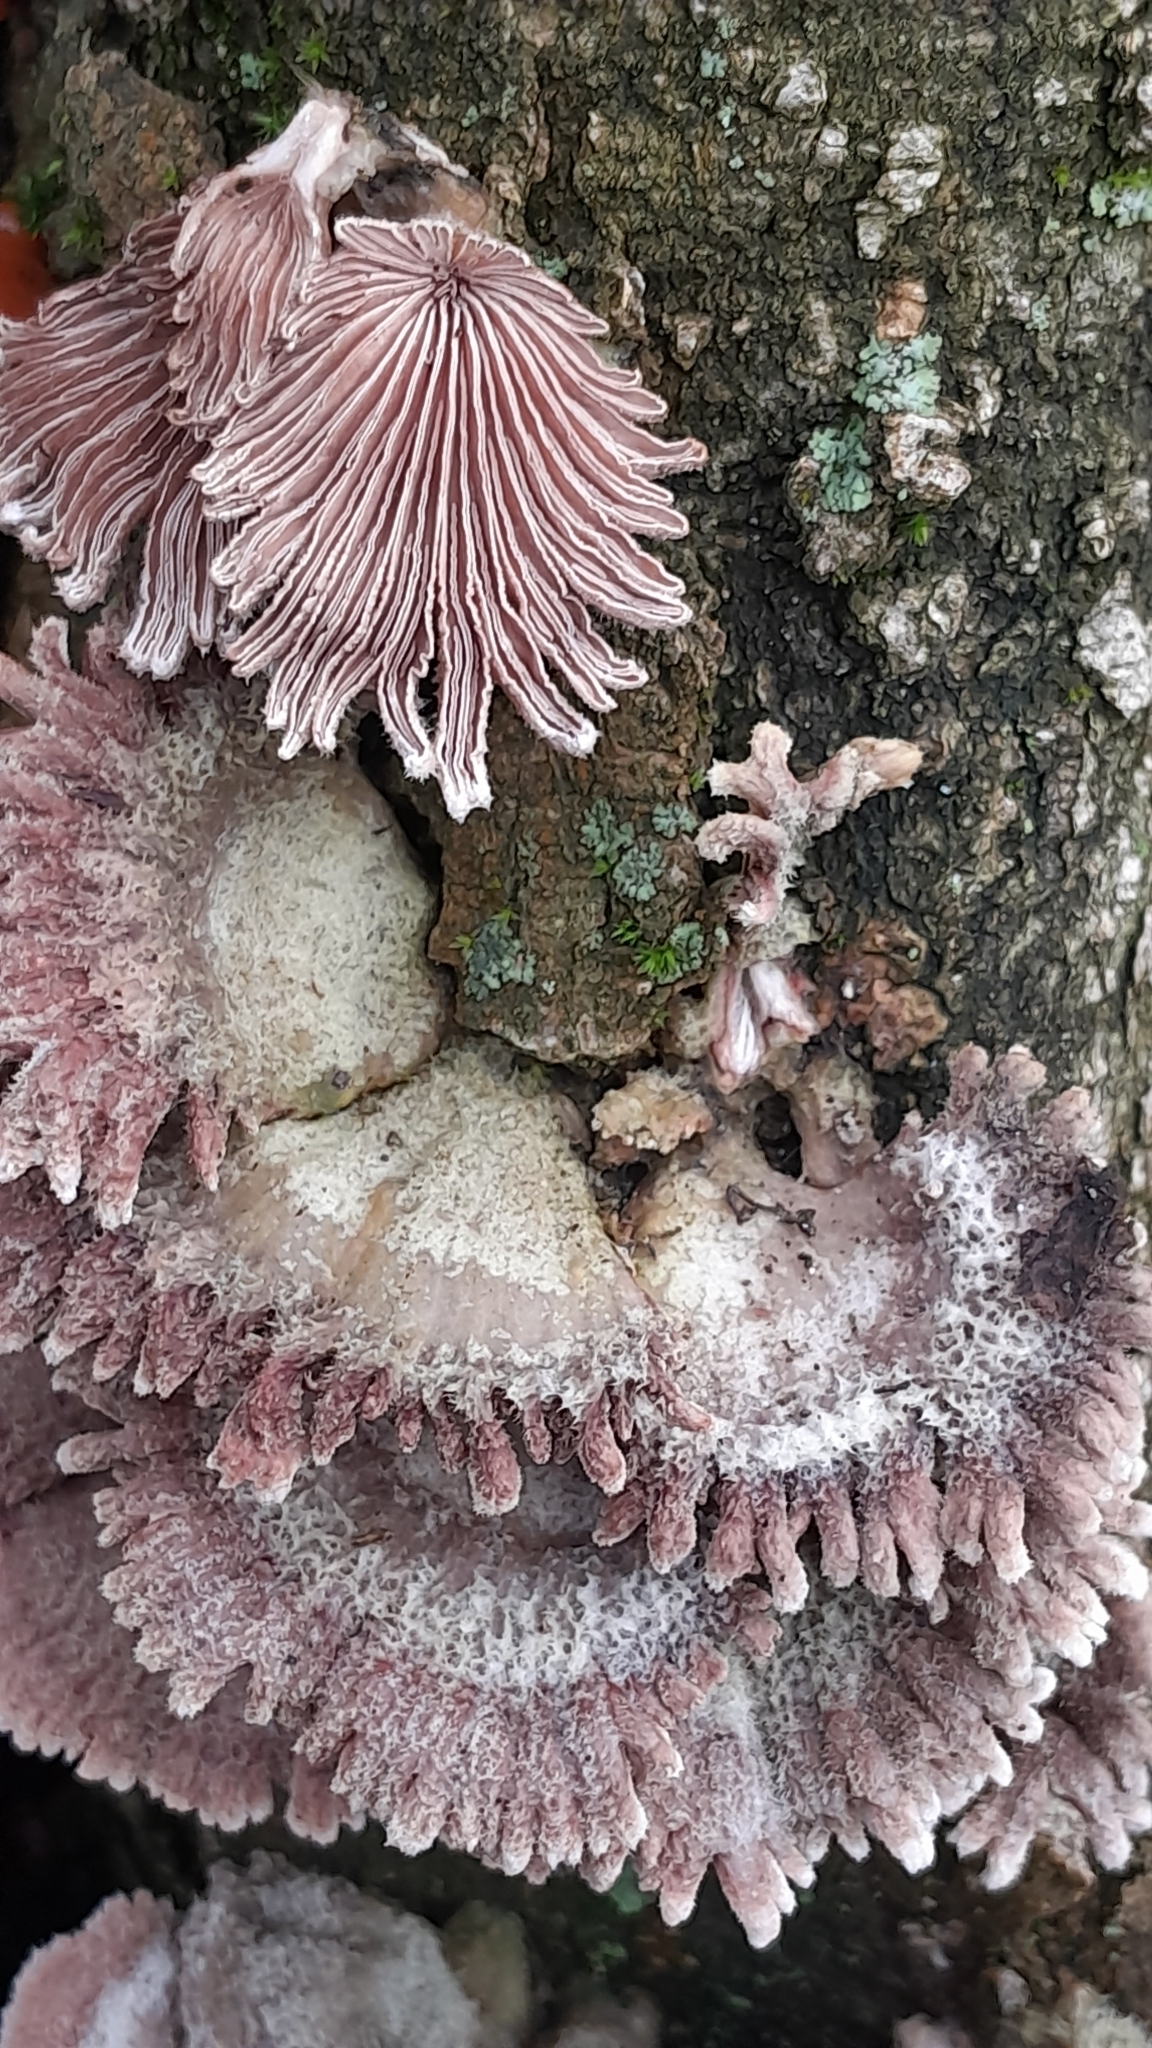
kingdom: Fungi
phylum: Basidiomycota
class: Agaricomycetes
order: Agaricales
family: Schizophyllaceae
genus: Schizophyllum
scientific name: Schizophyllum commune
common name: Common porecrust
